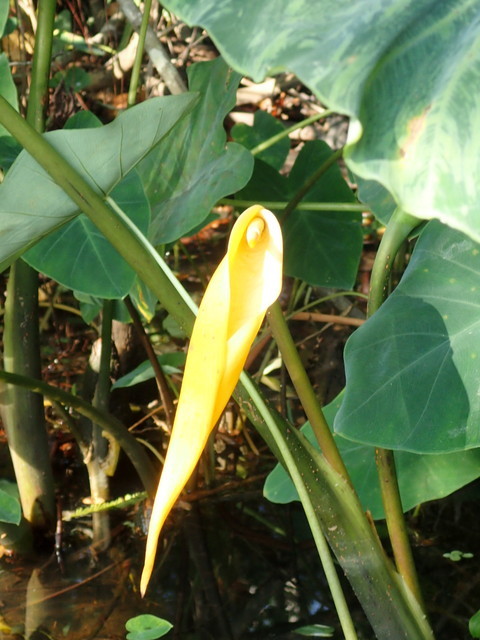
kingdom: Plantae
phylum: Tracheophyta
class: Liliopsida
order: Alismatales
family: Araceae
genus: Colocasia
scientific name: Colocasia esculenta
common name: Taro
